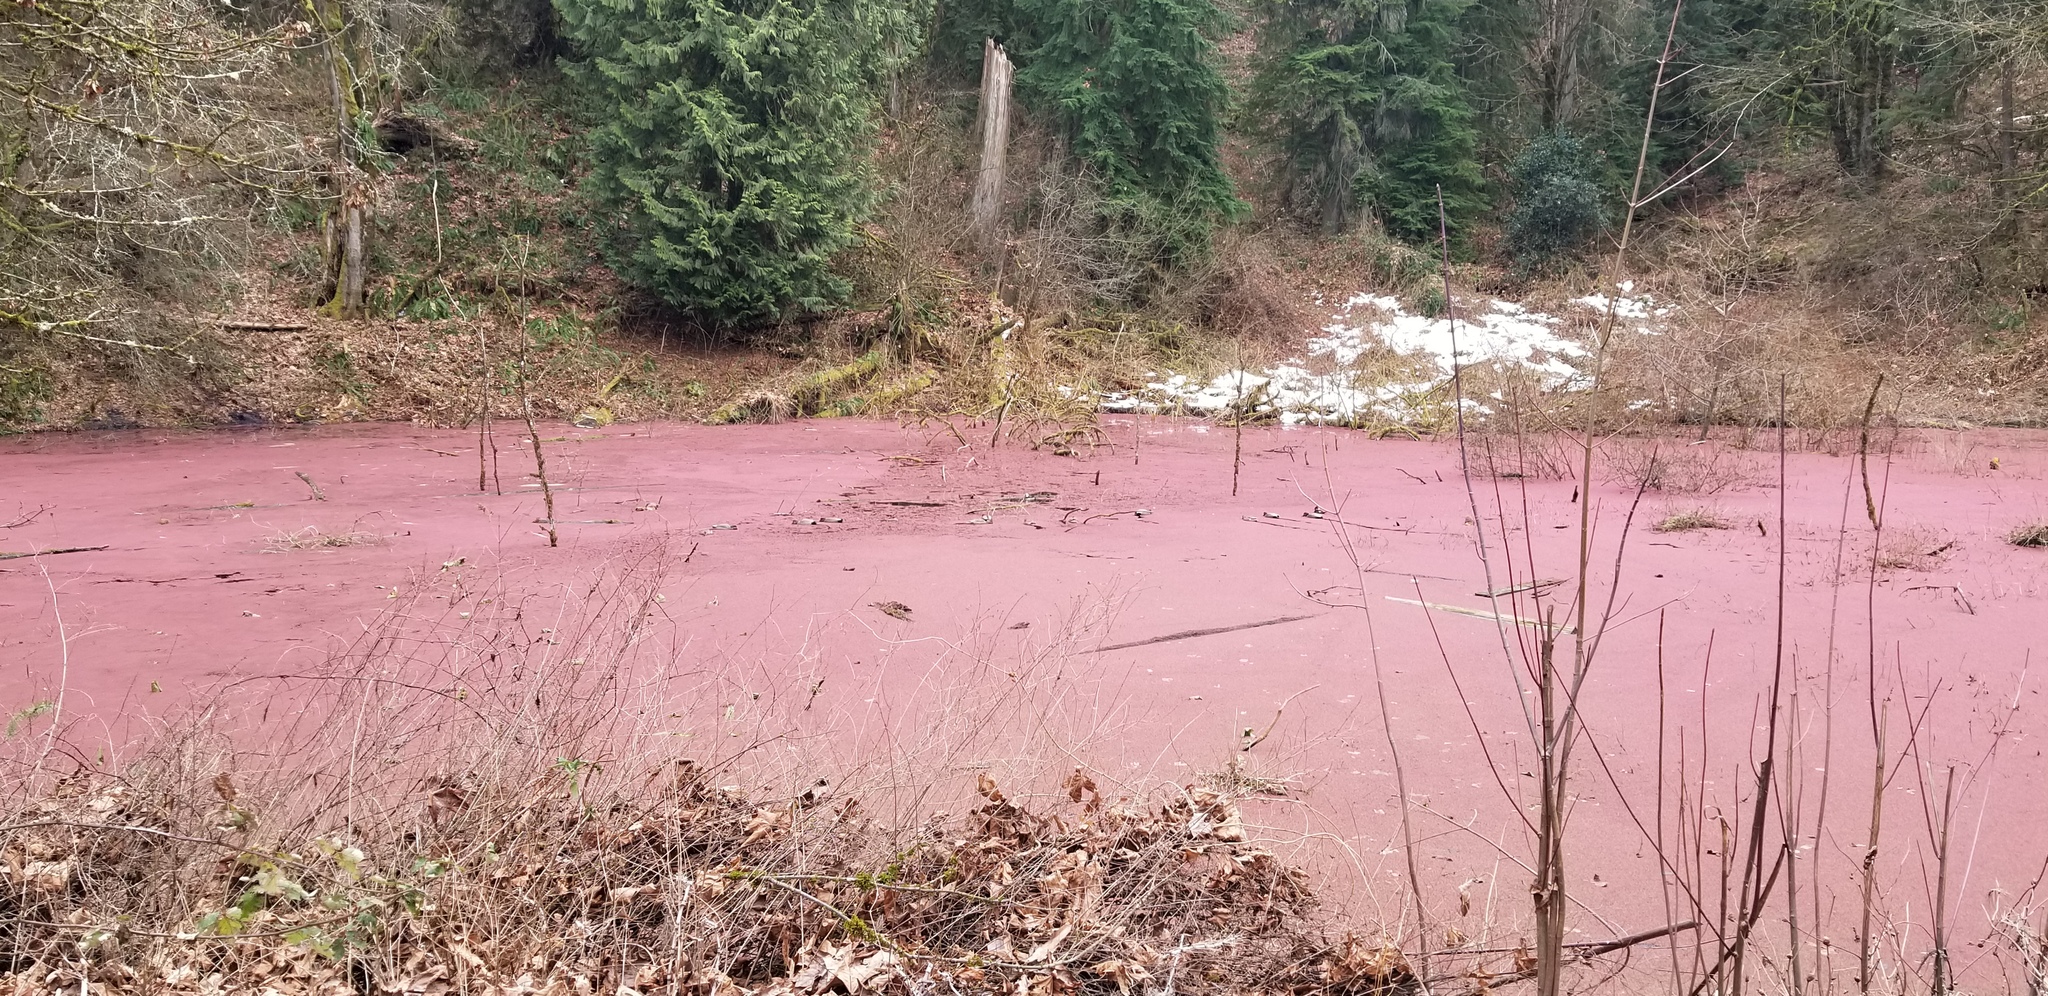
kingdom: Plantae
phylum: Tracheophyta
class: Polypodiopsida
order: Salviniales
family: Salviniaceae
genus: Azolla
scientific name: Azolla filiculoides
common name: Water fern
